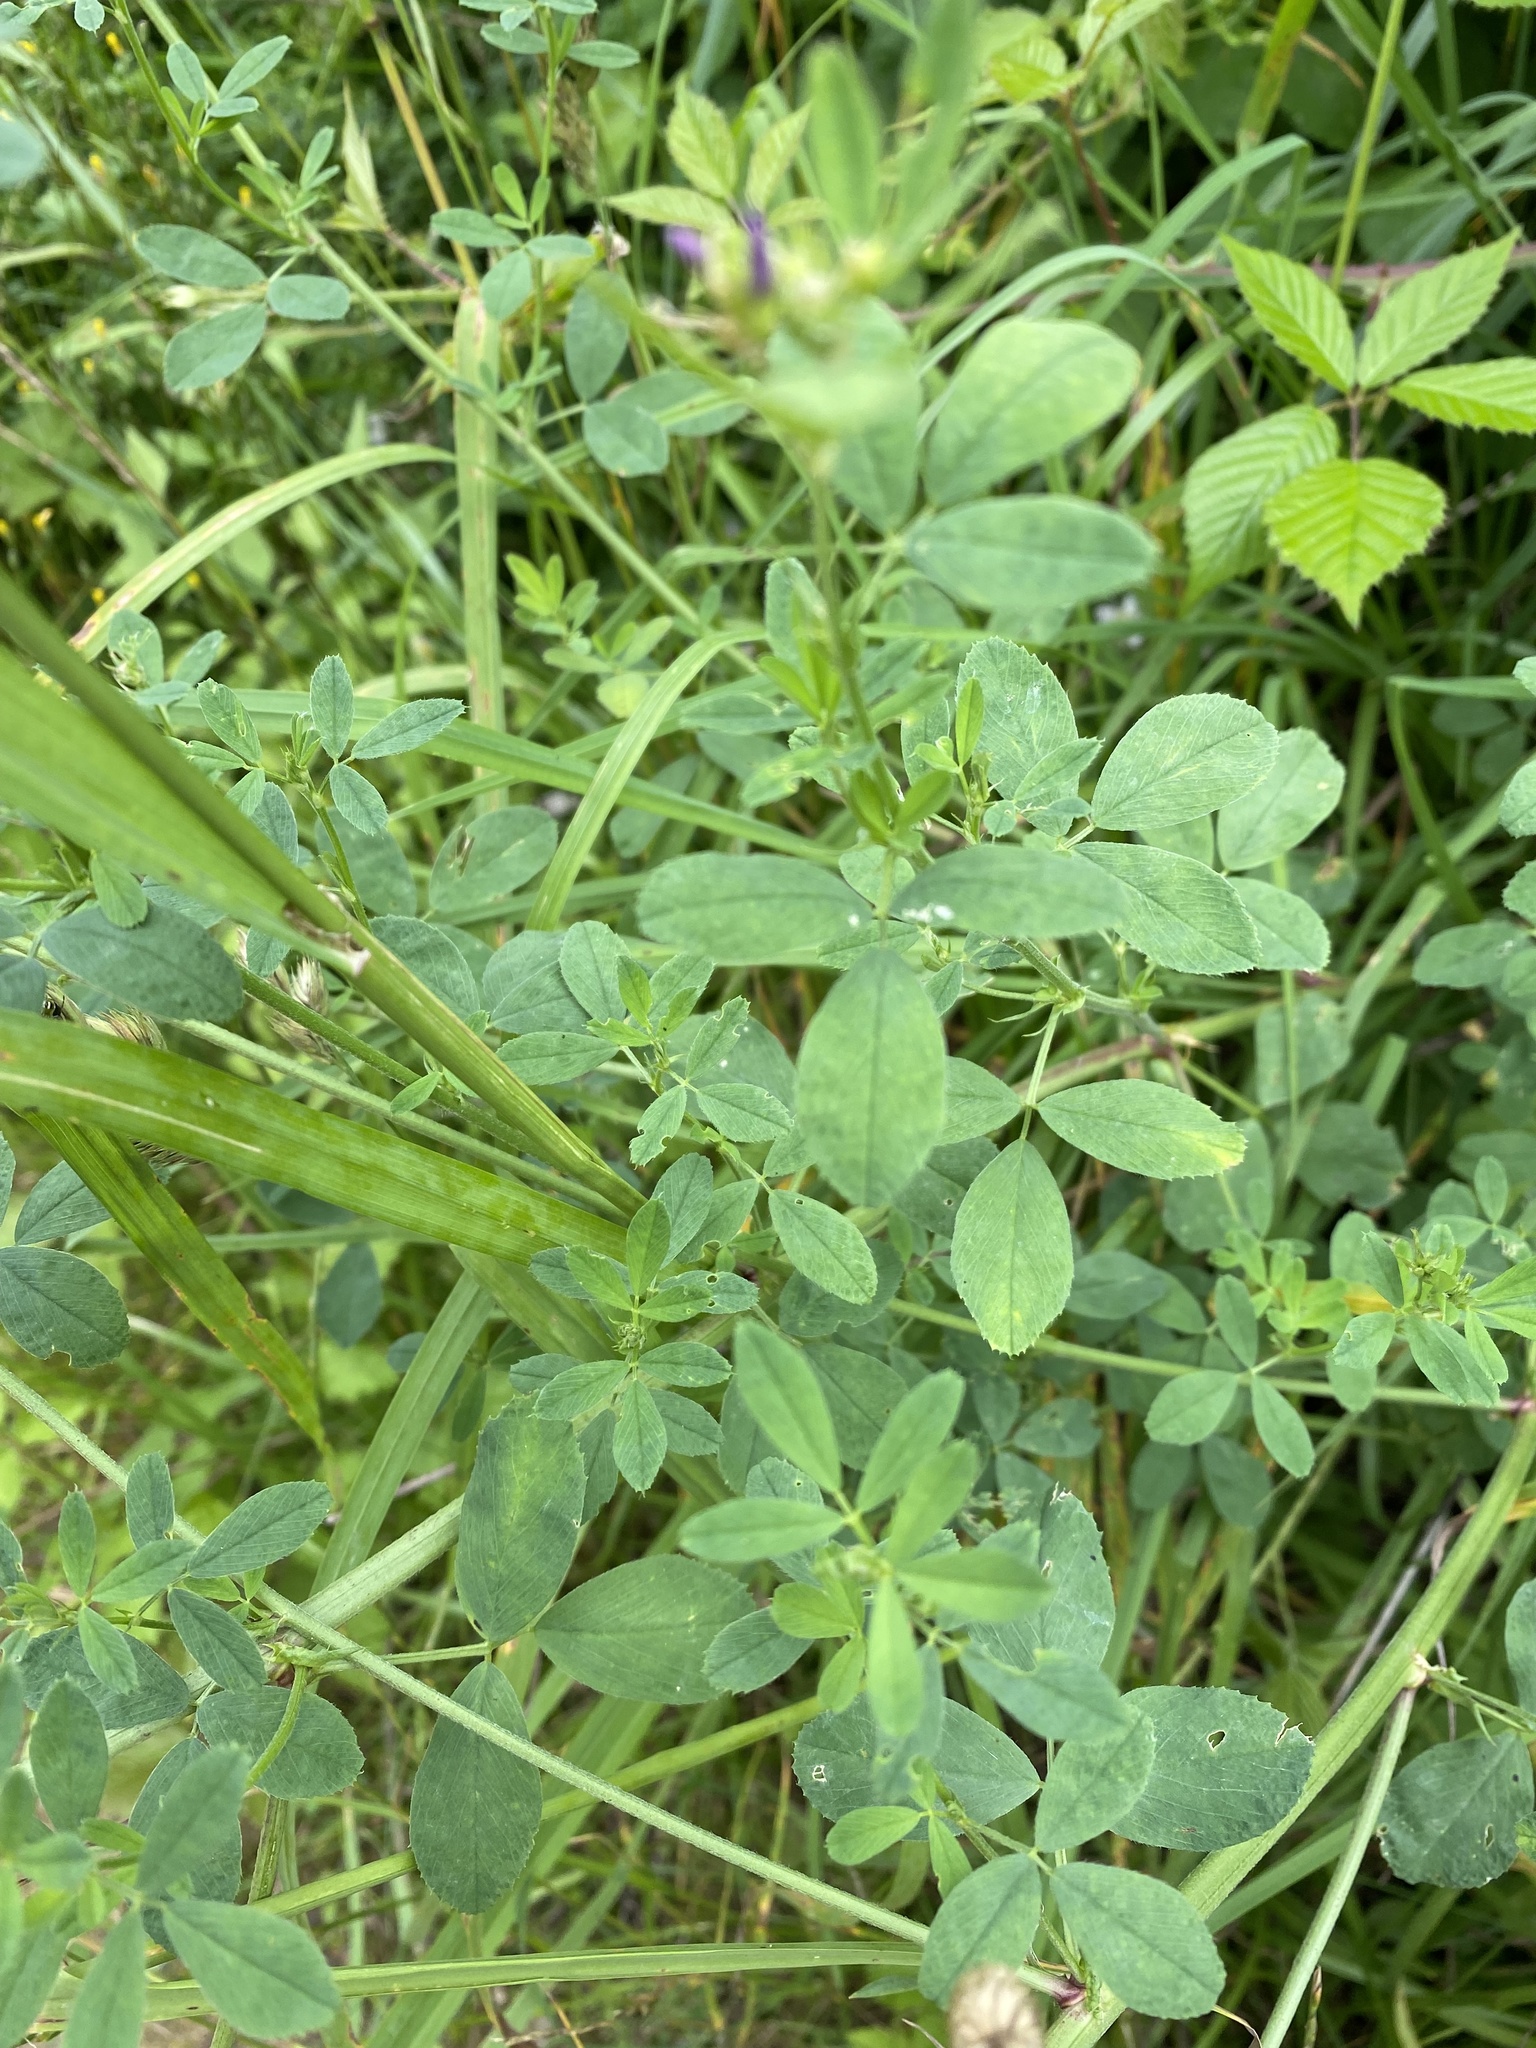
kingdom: Plantae
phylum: Tracheophyta
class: Magnoliopsida
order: Fabales
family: Fabaceae
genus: Medicago
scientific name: Medicago sativa
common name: Alfalfa
